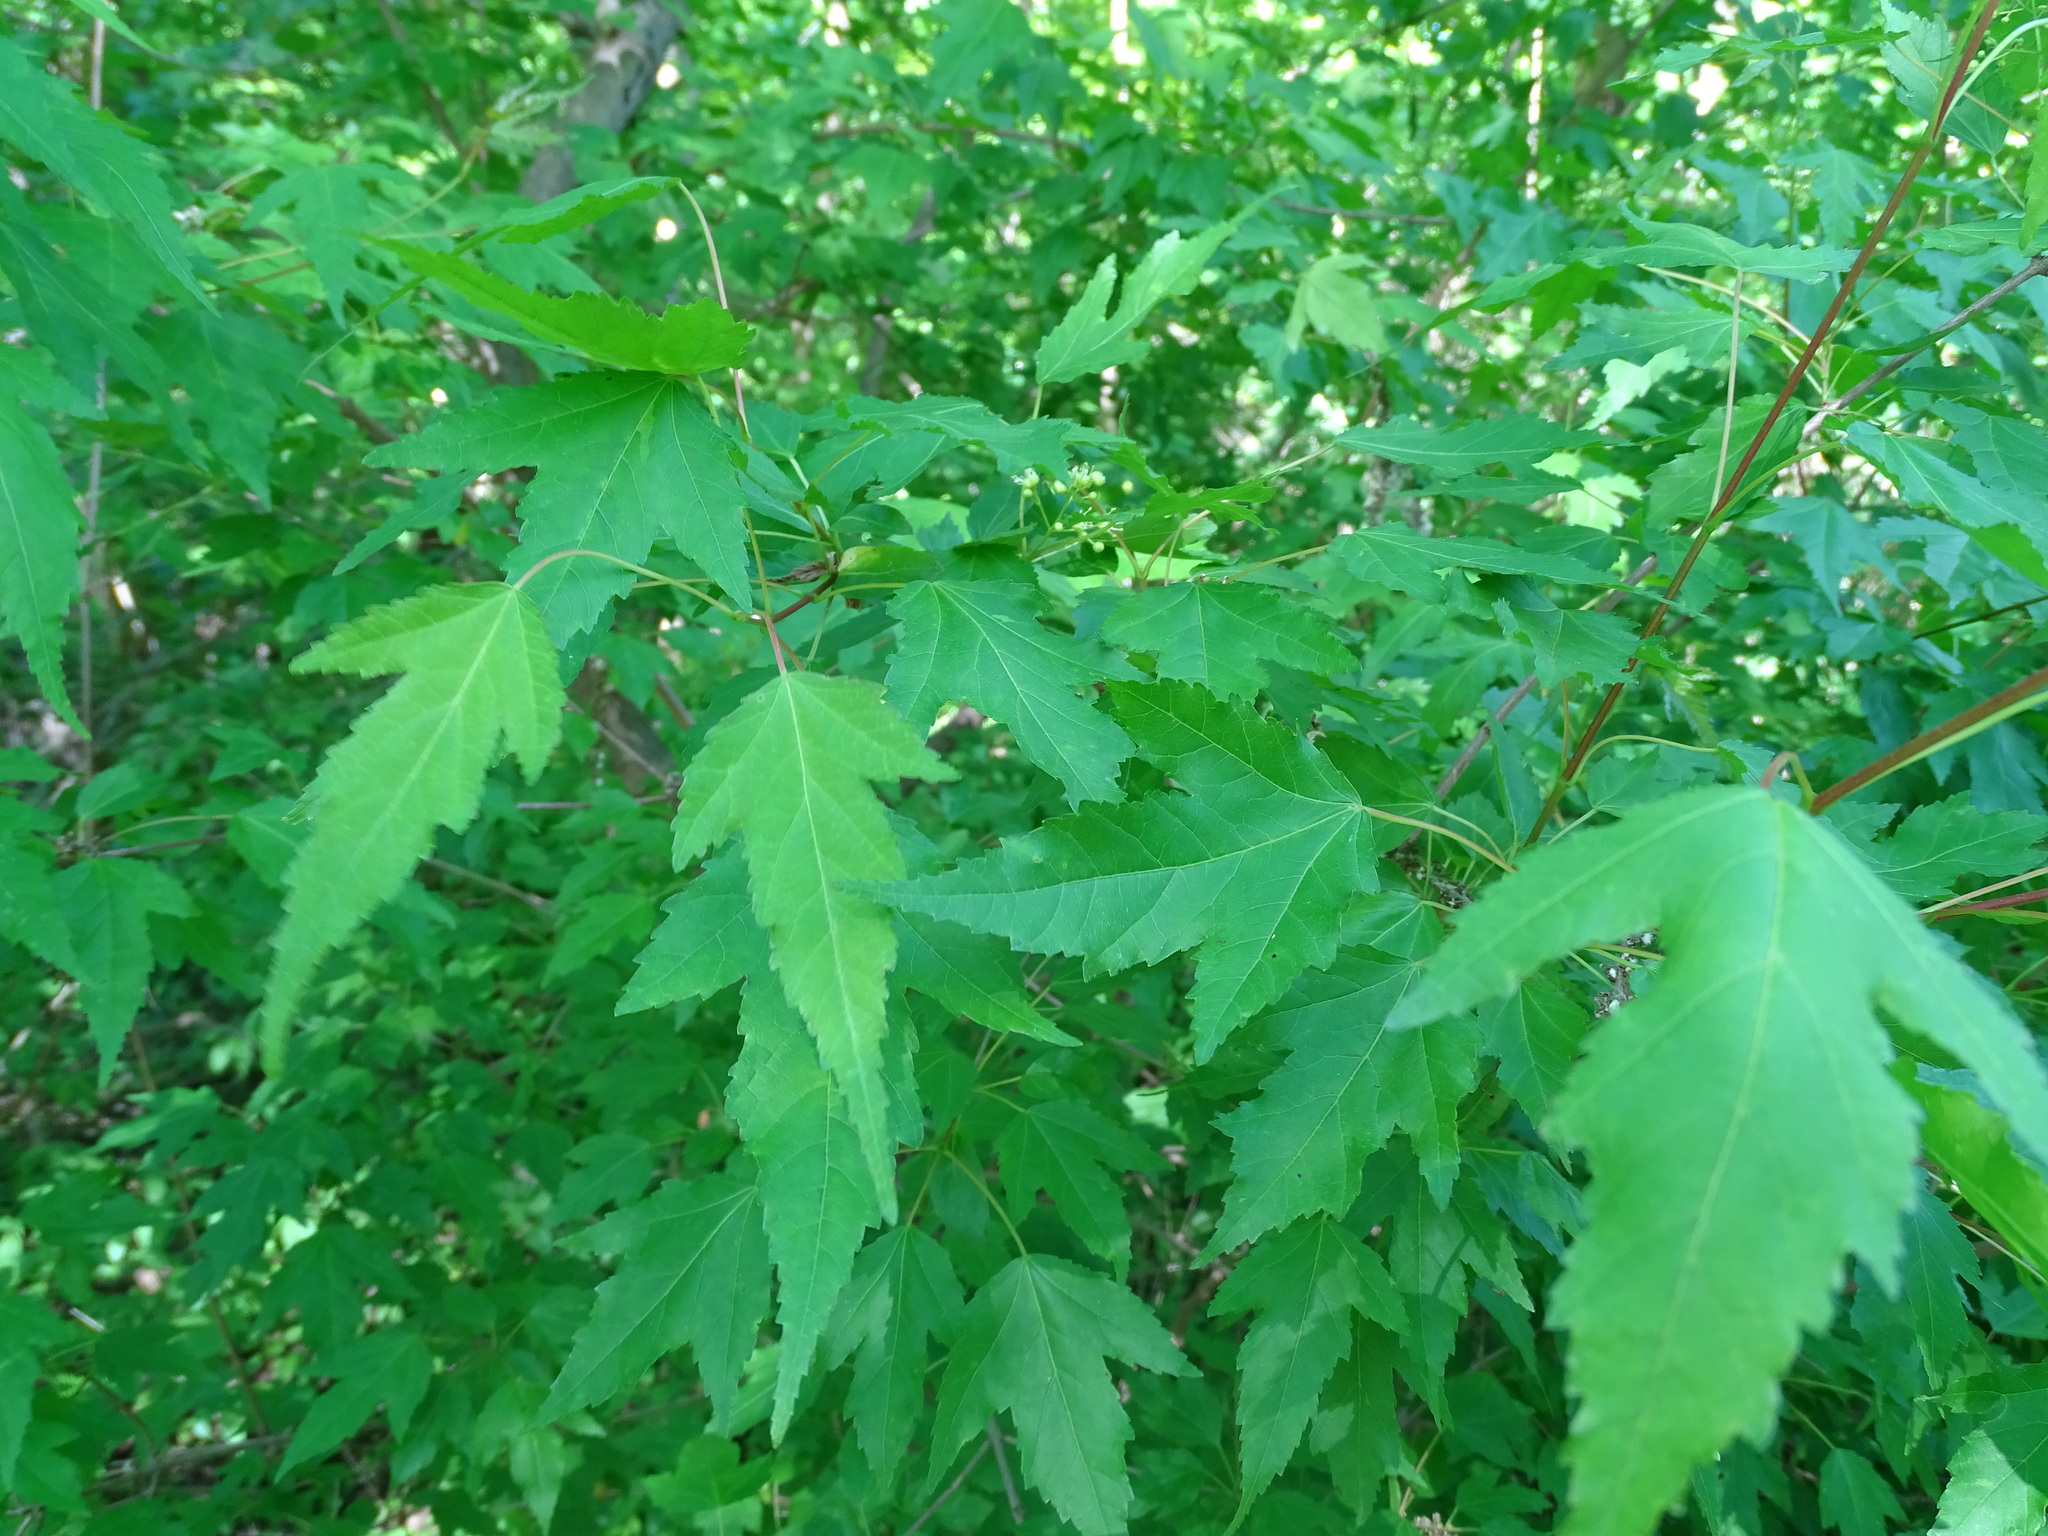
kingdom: Plantae
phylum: Tracheophyta
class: Magnoliopsida
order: Sapindales
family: Sapindaceae
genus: Acer
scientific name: Acer tataricum
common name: Tartar maple
